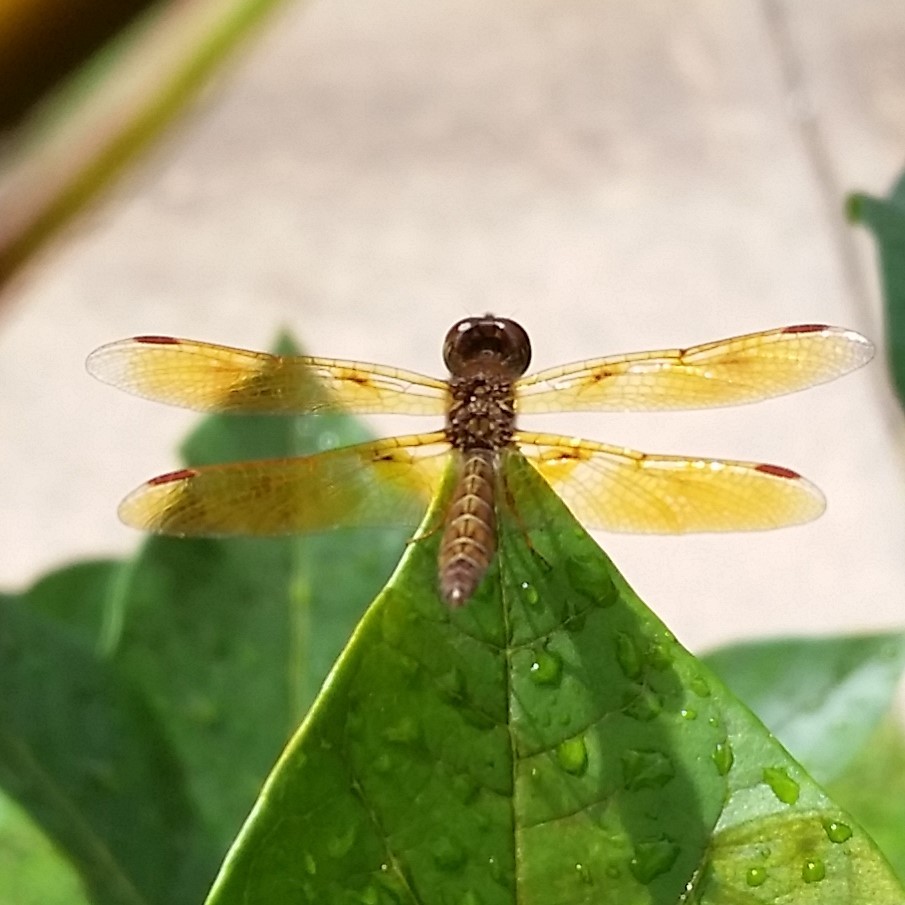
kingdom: Animalia
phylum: Arthropoda
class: Insecta
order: Odonata
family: Libellulidae
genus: Perithemis
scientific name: Perithemis tenera
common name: Eastern amberwing
